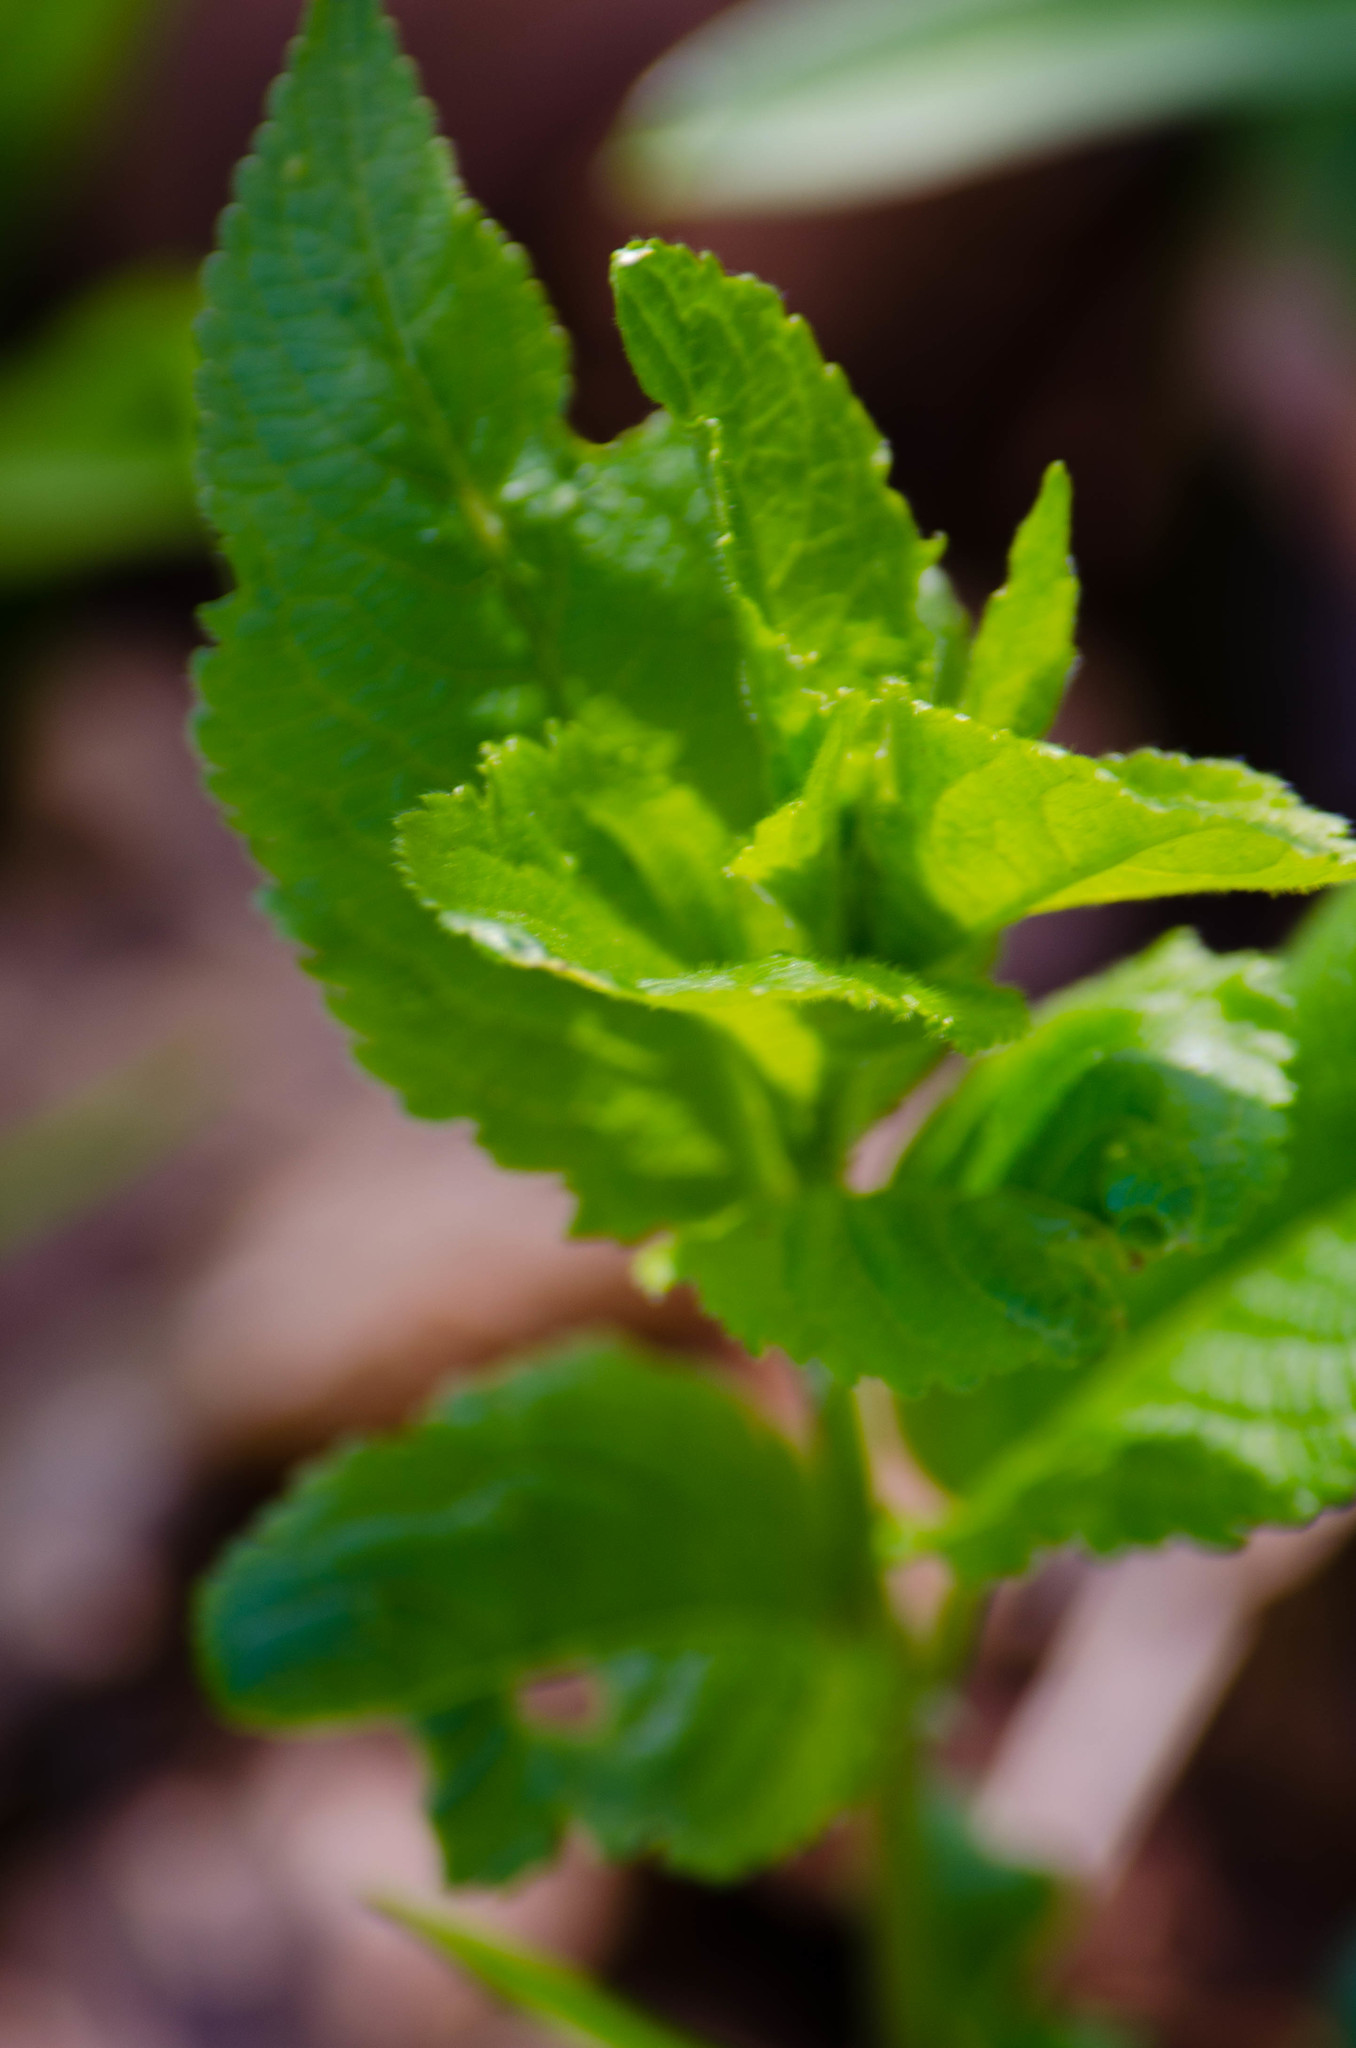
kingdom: Plantae
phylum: Tracheophyta
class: Magnoliopsida
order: Malpighiales
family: Euphorbiaceae
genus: Mercurialis
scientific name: Mercurialis perennis
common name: Dog mercury
